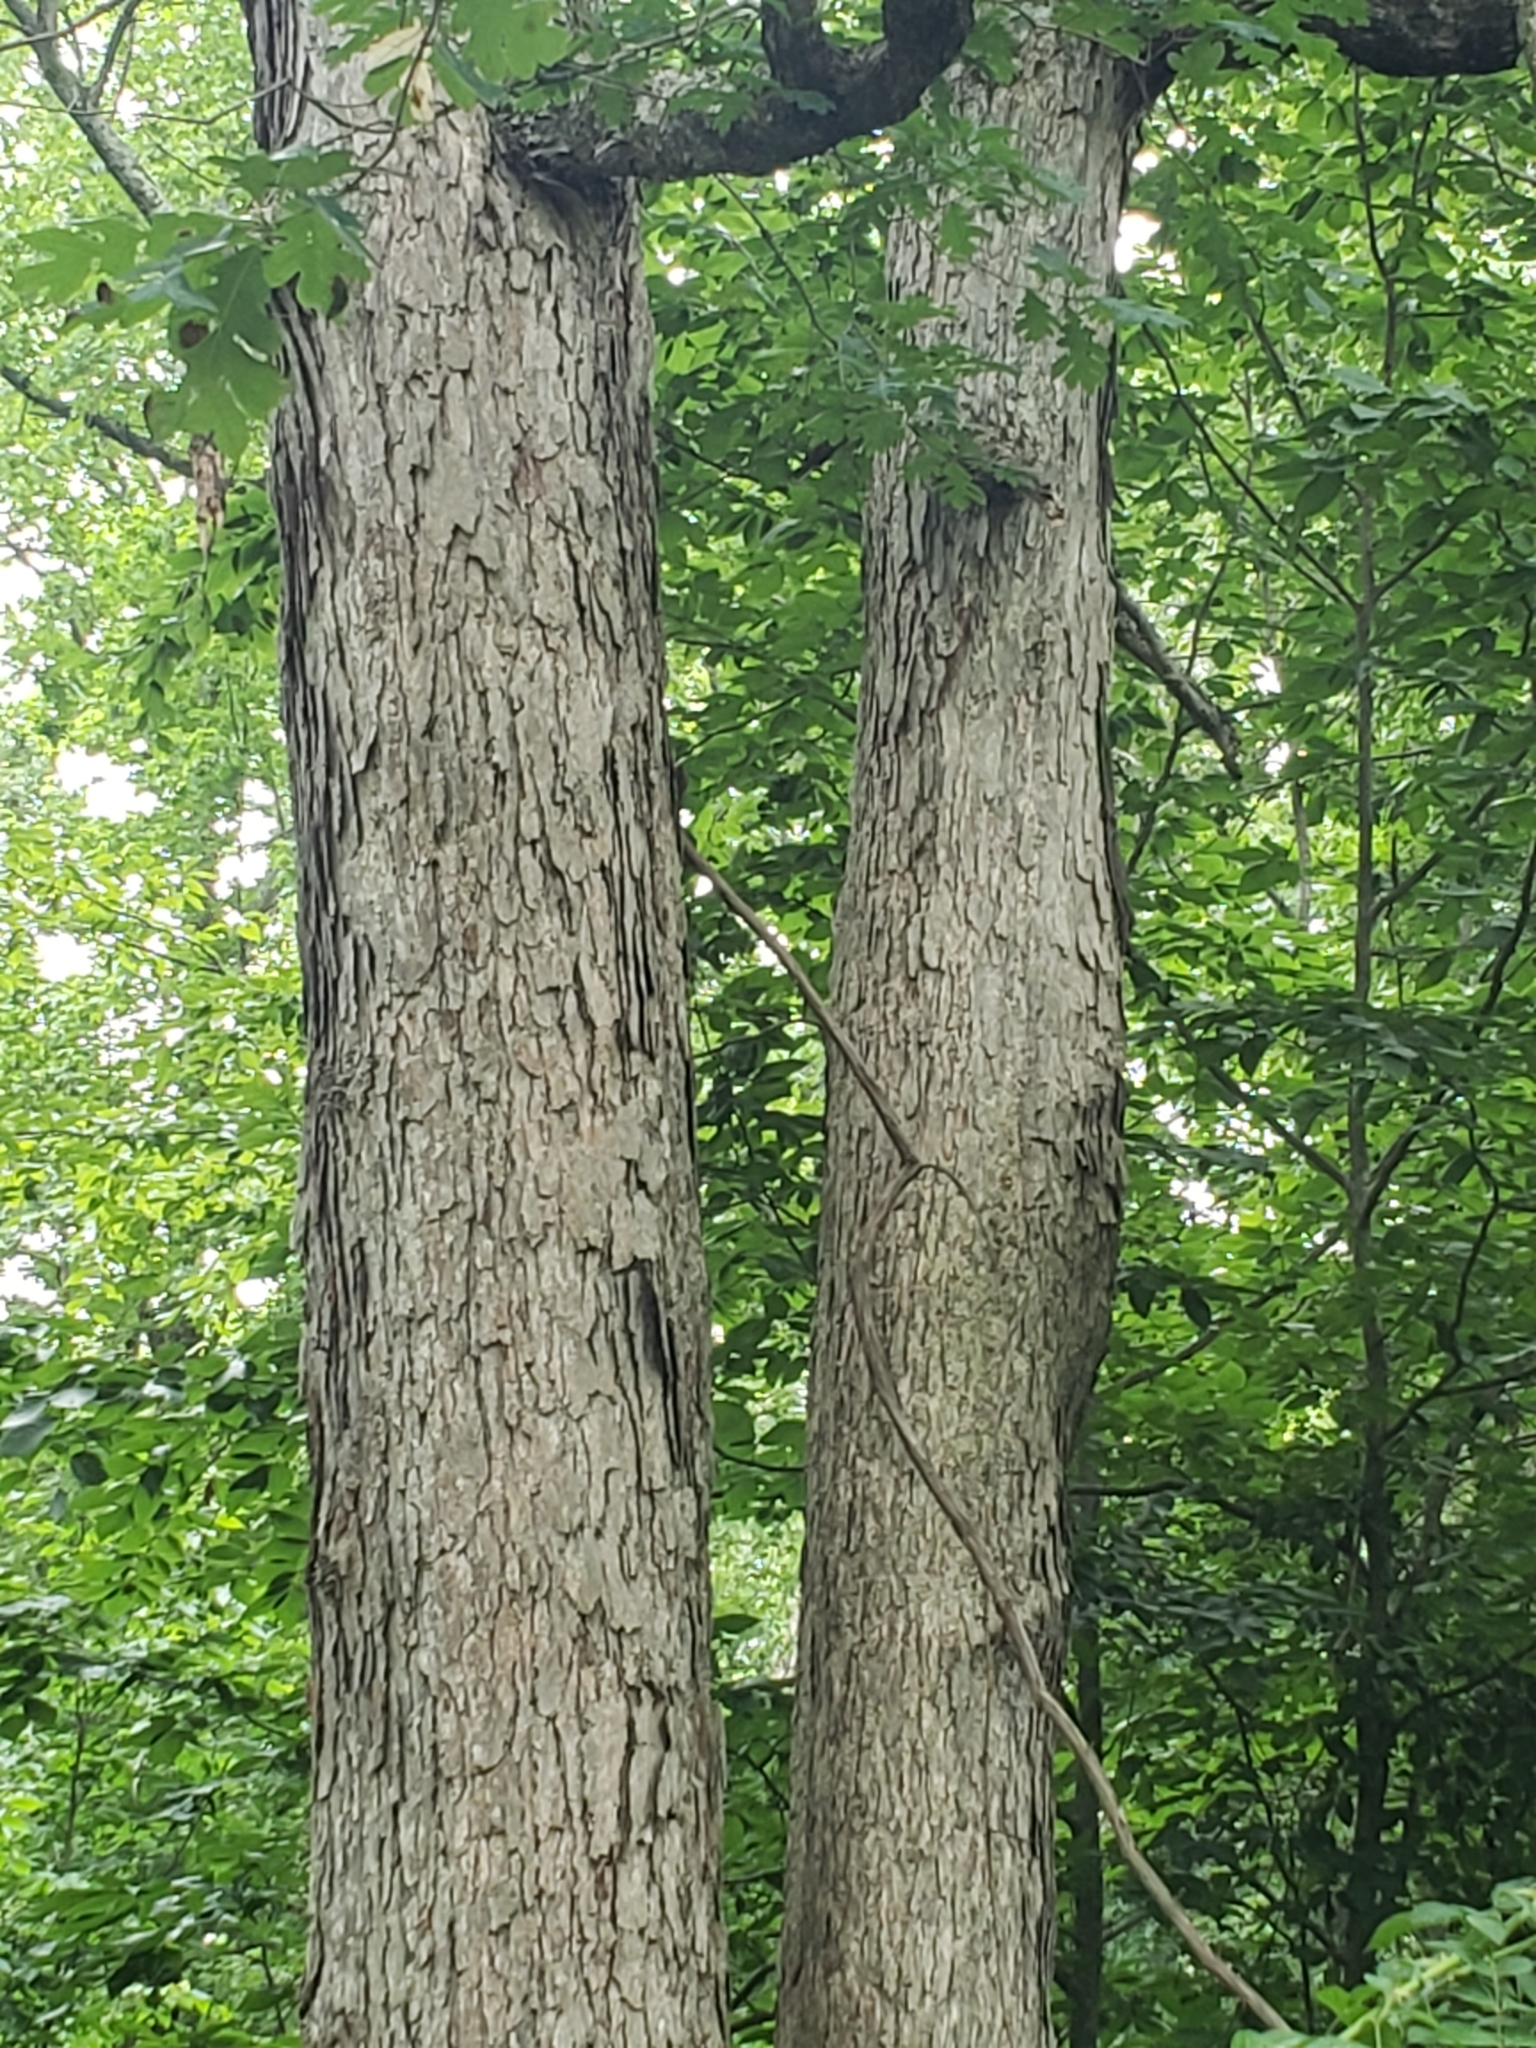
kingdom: Plantae
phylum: Tracheophyta
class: Magnoliopsida
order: Fagales
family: Fagaceae
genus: Quercus
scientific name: Quercus alba
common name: White oak
